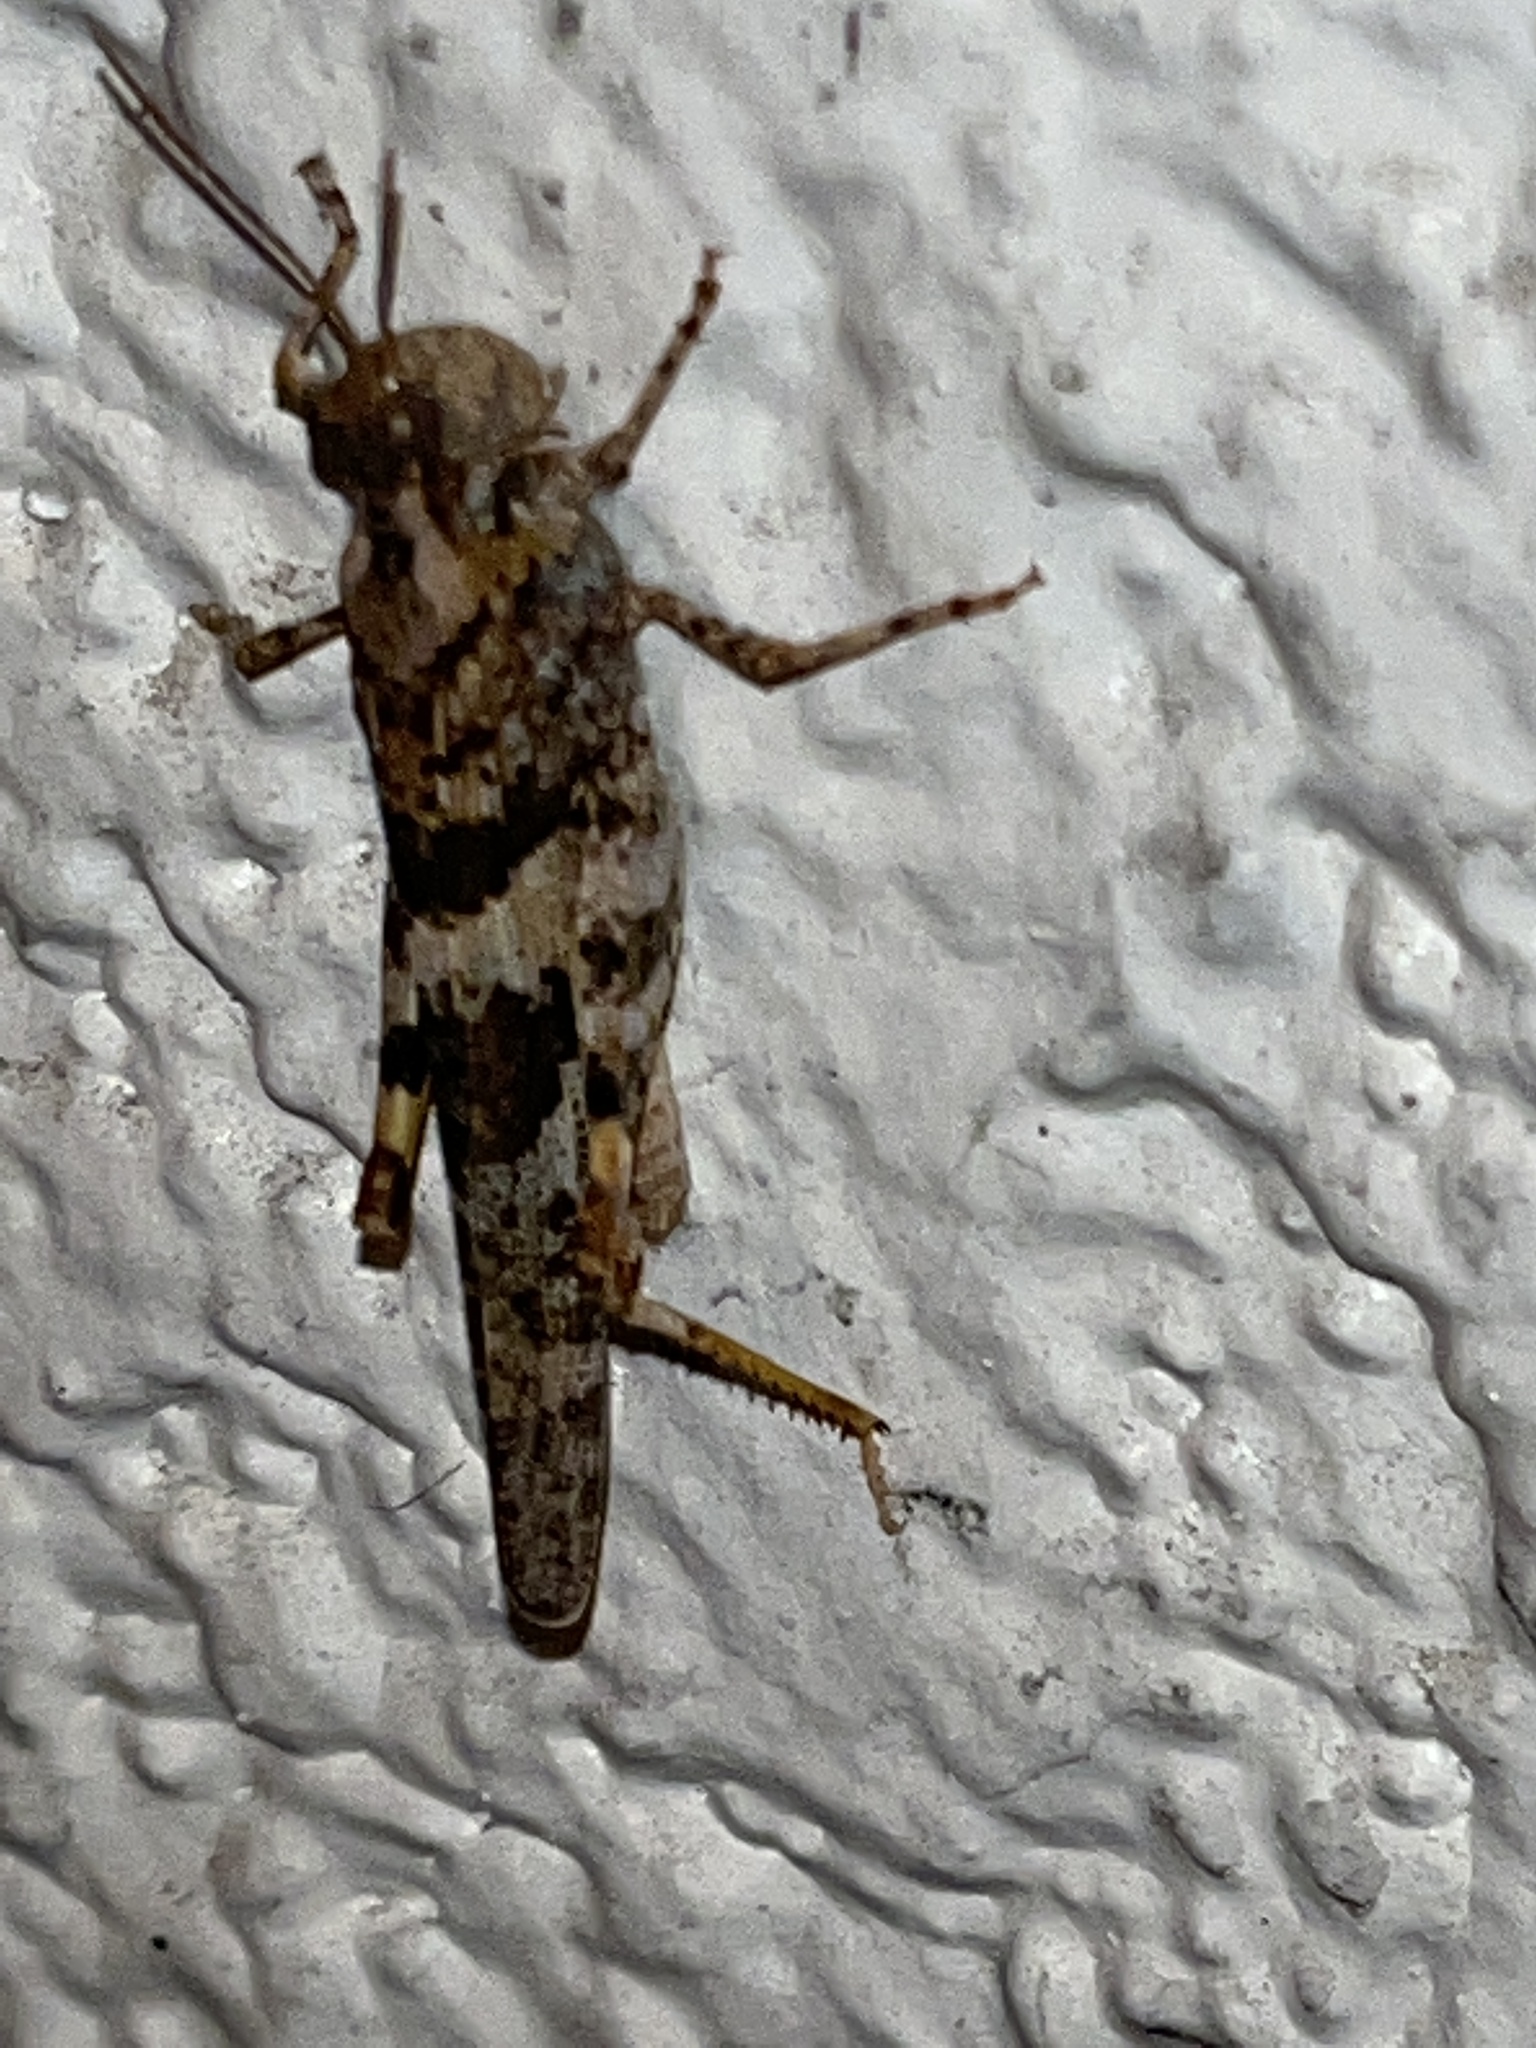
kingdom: Animalia
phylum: Arthropoda
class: Insecta
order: Orthoptera
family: Acrididae
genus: Trimerotropis
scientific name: Trimerotropis pallidipennis
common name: Pallid-winged grasshopper
